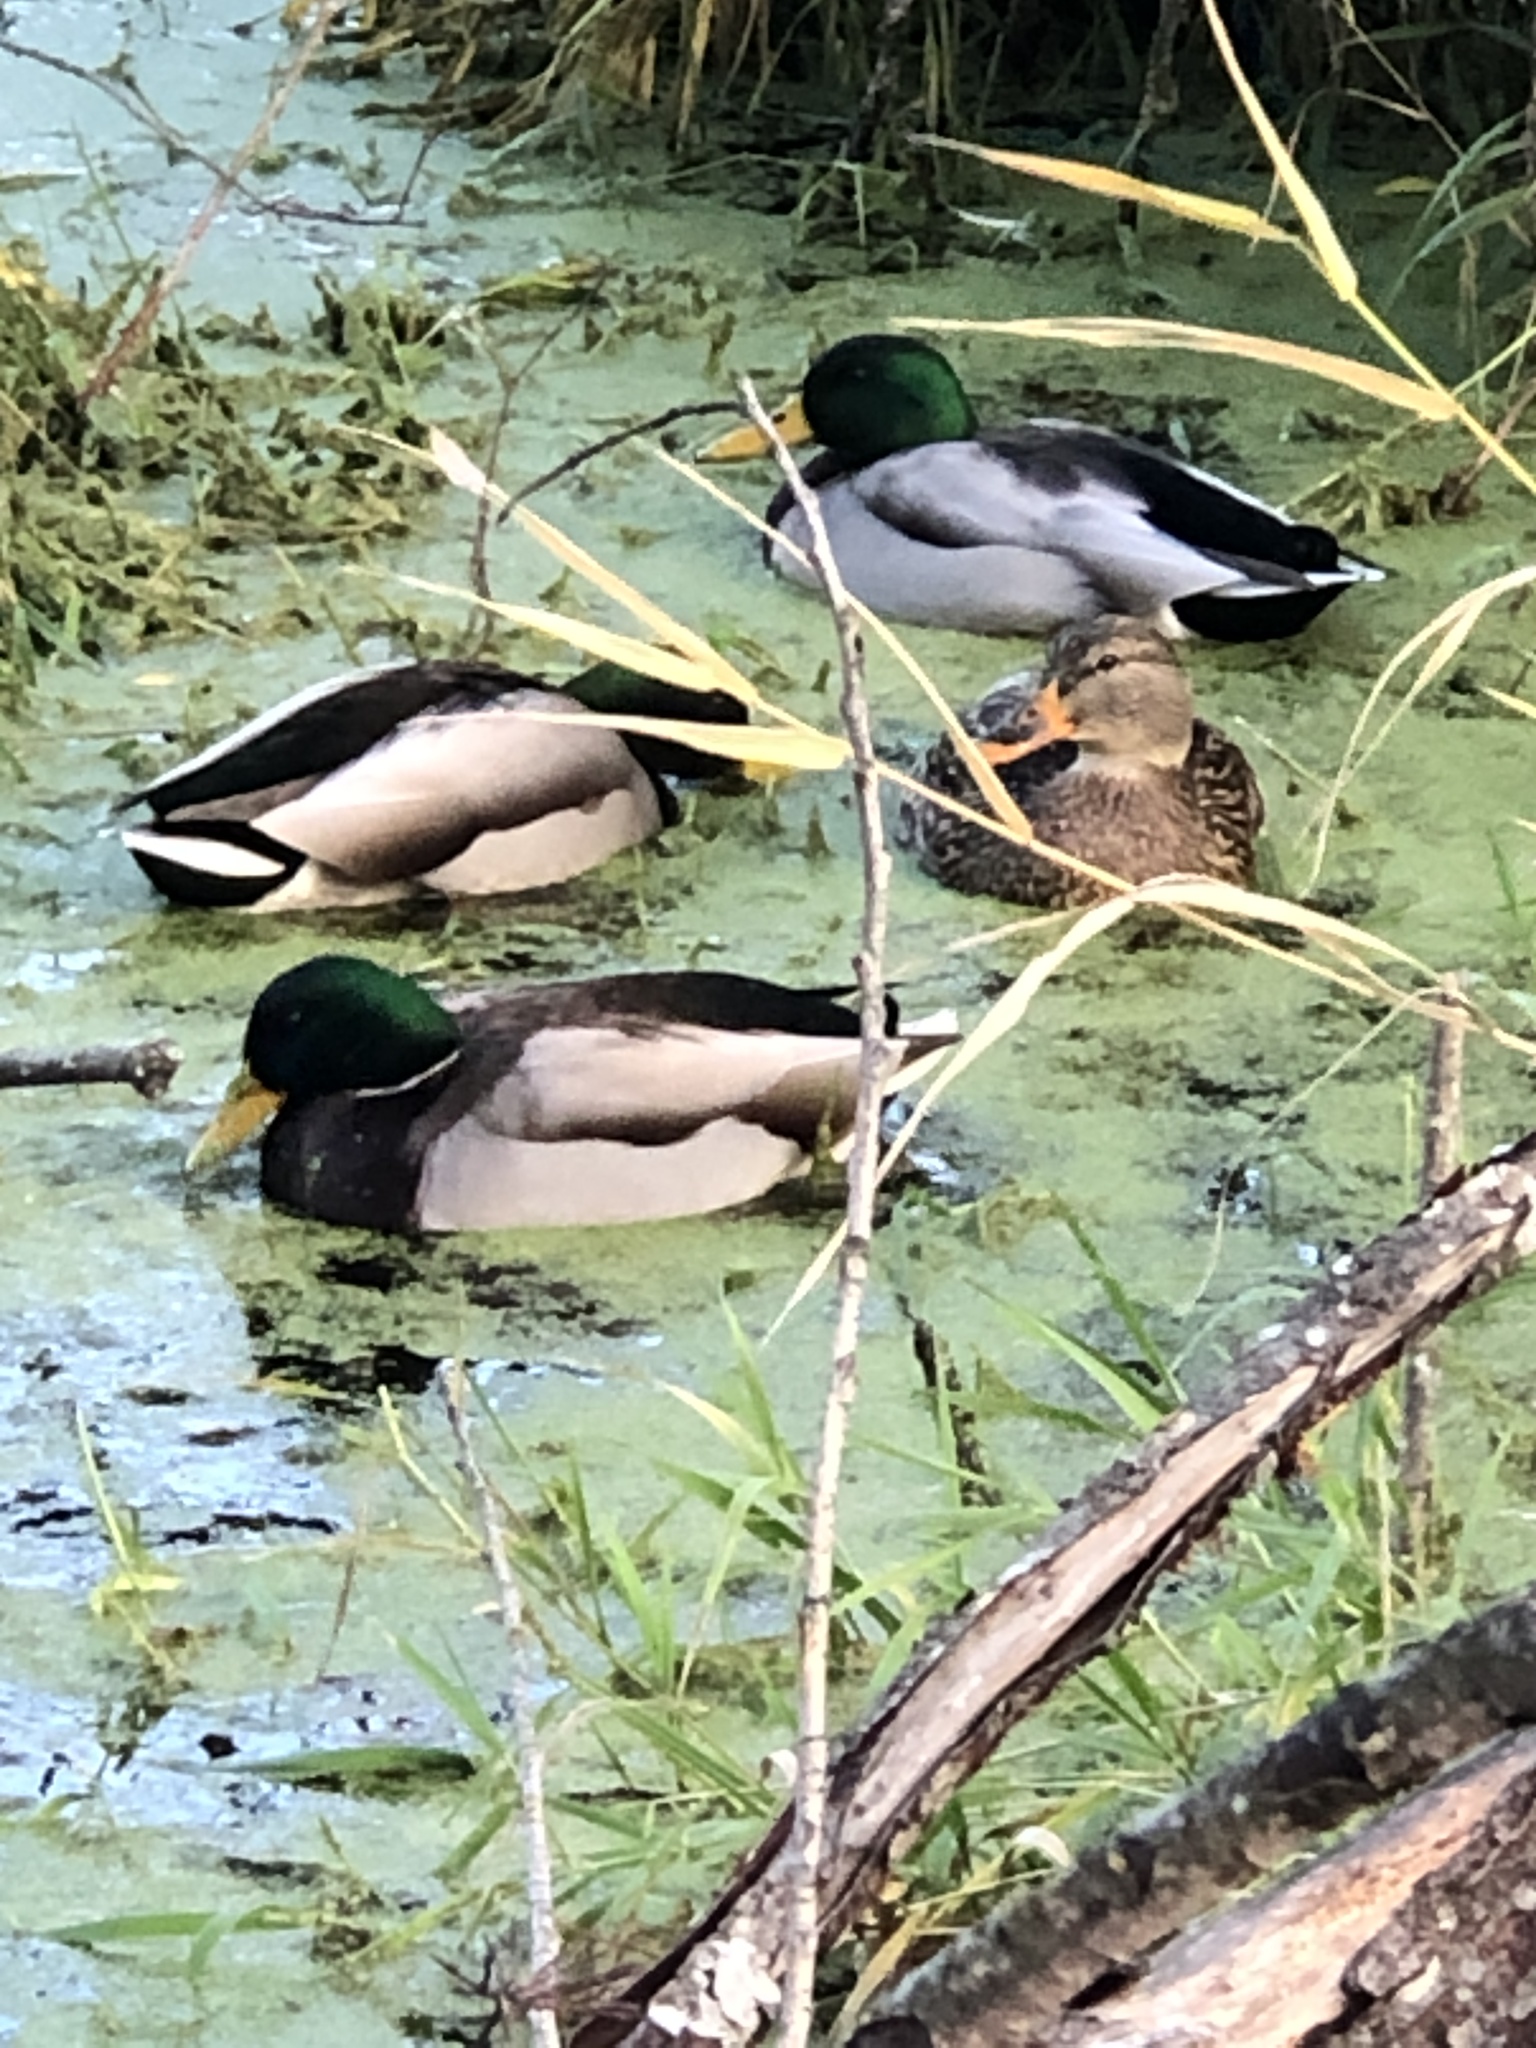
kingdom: Animalia
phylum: Chordata
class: Aves
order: Anseriformes
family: Anatidae
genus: Anas
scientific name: Anas platyrhynchos
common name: Mallard
